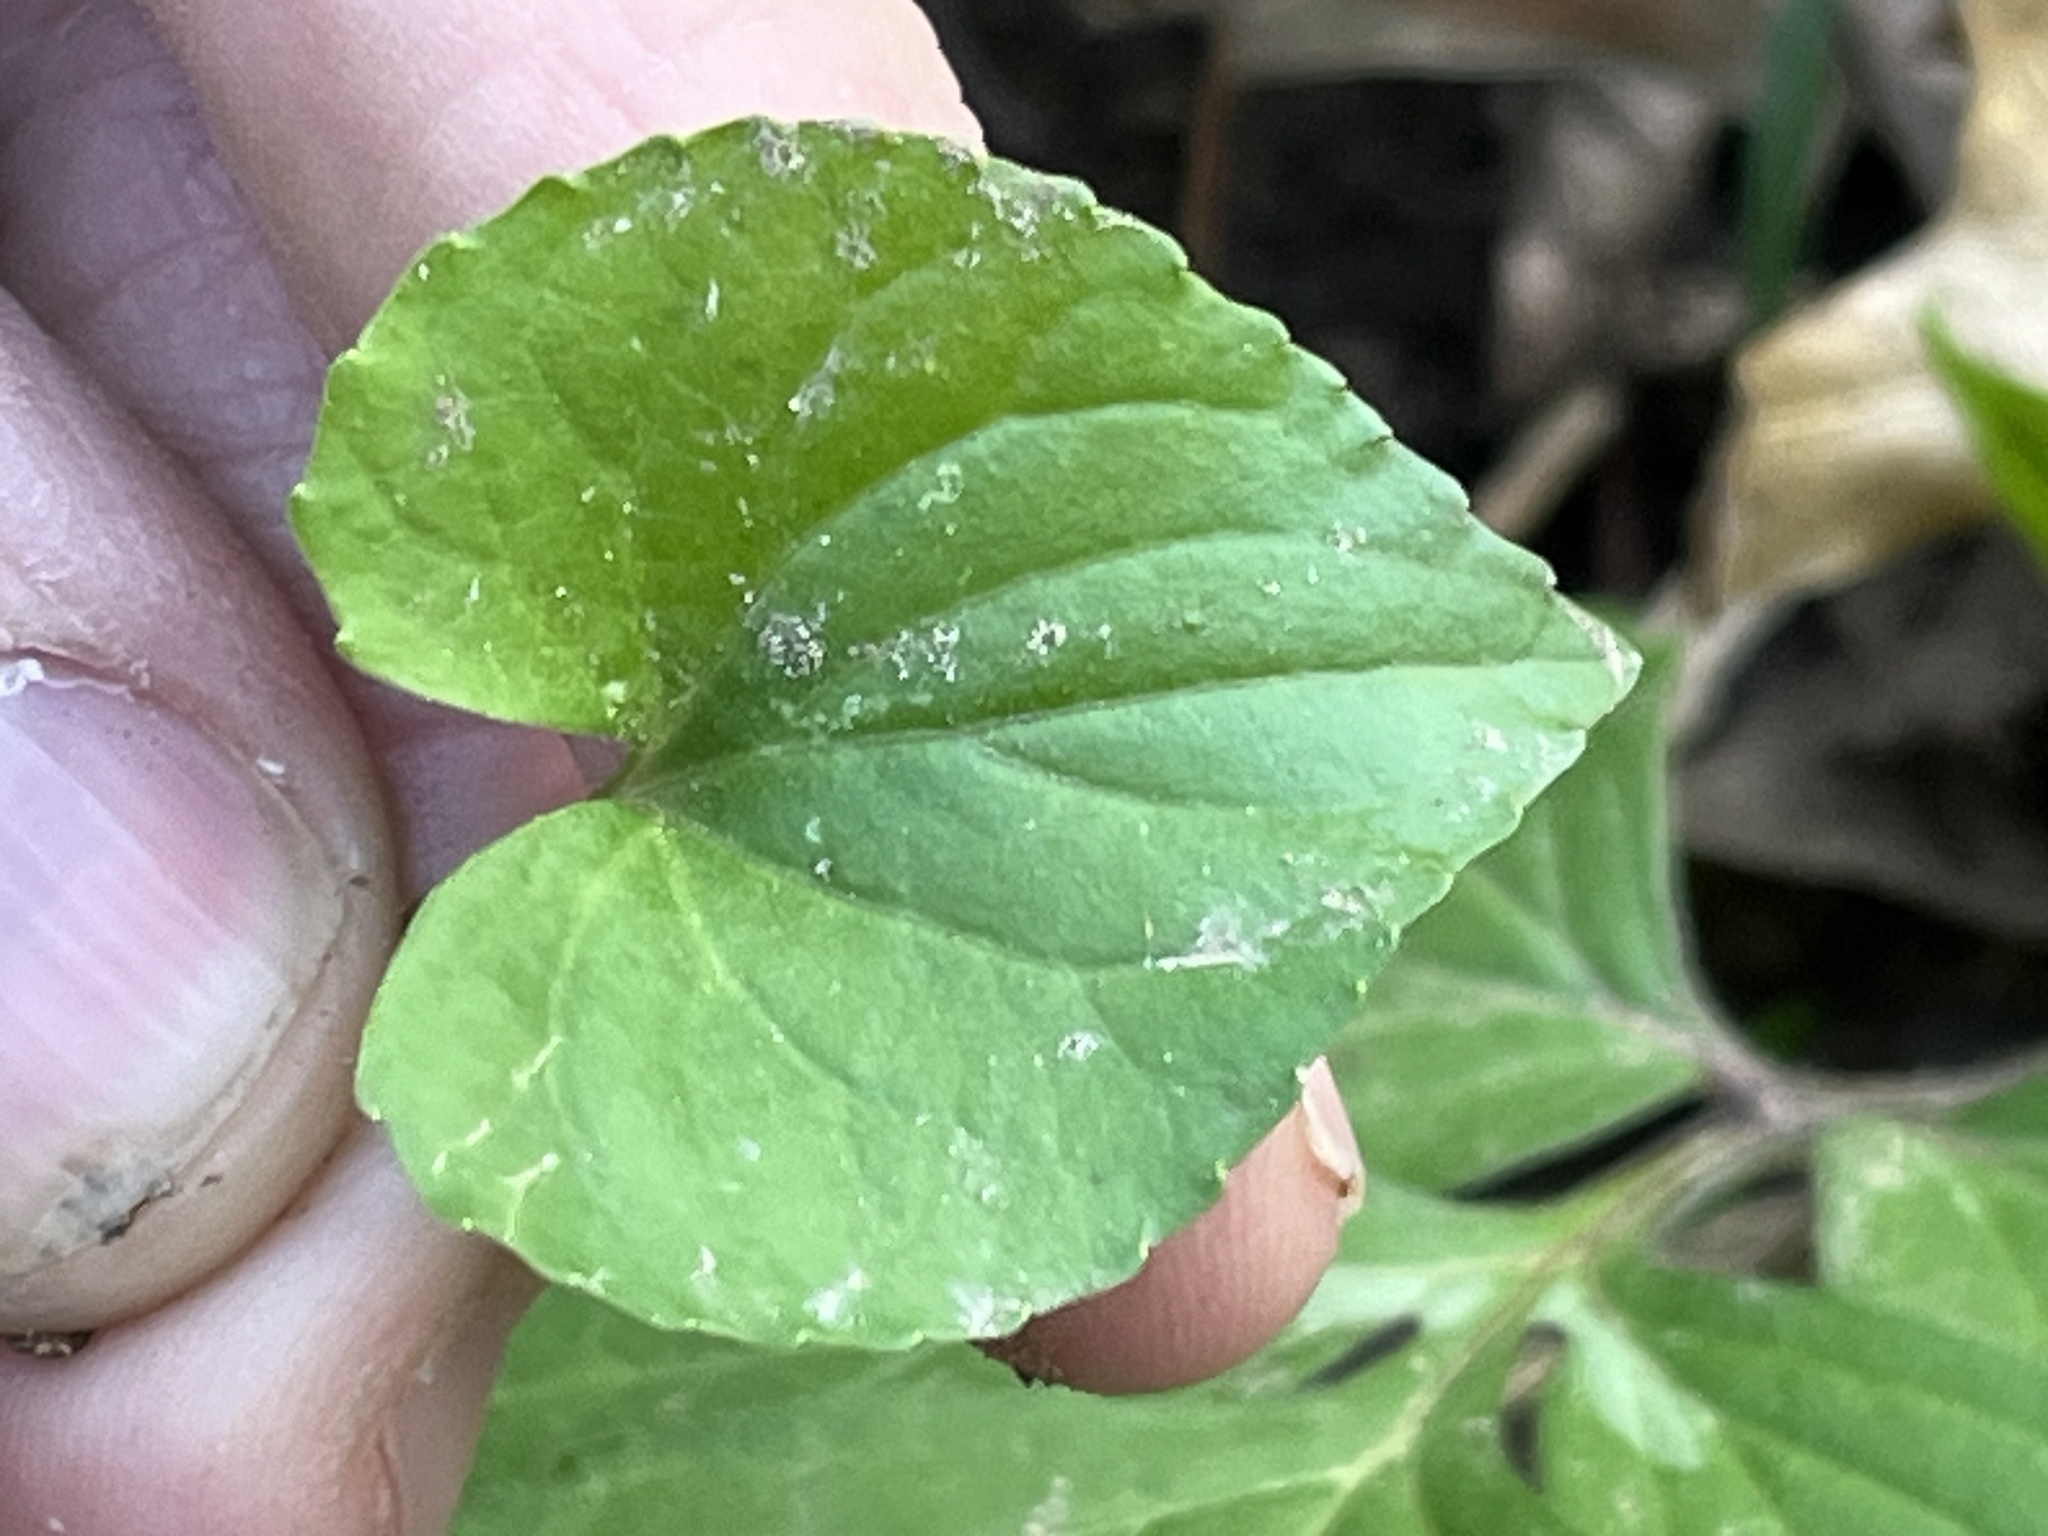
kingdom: Plantae
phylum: Tracheophyta
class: Magnoliopsida
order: Malpighiales
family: Violaceae
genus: Viola
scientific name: Viola eriocarpa
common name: Smooth yellow violet
